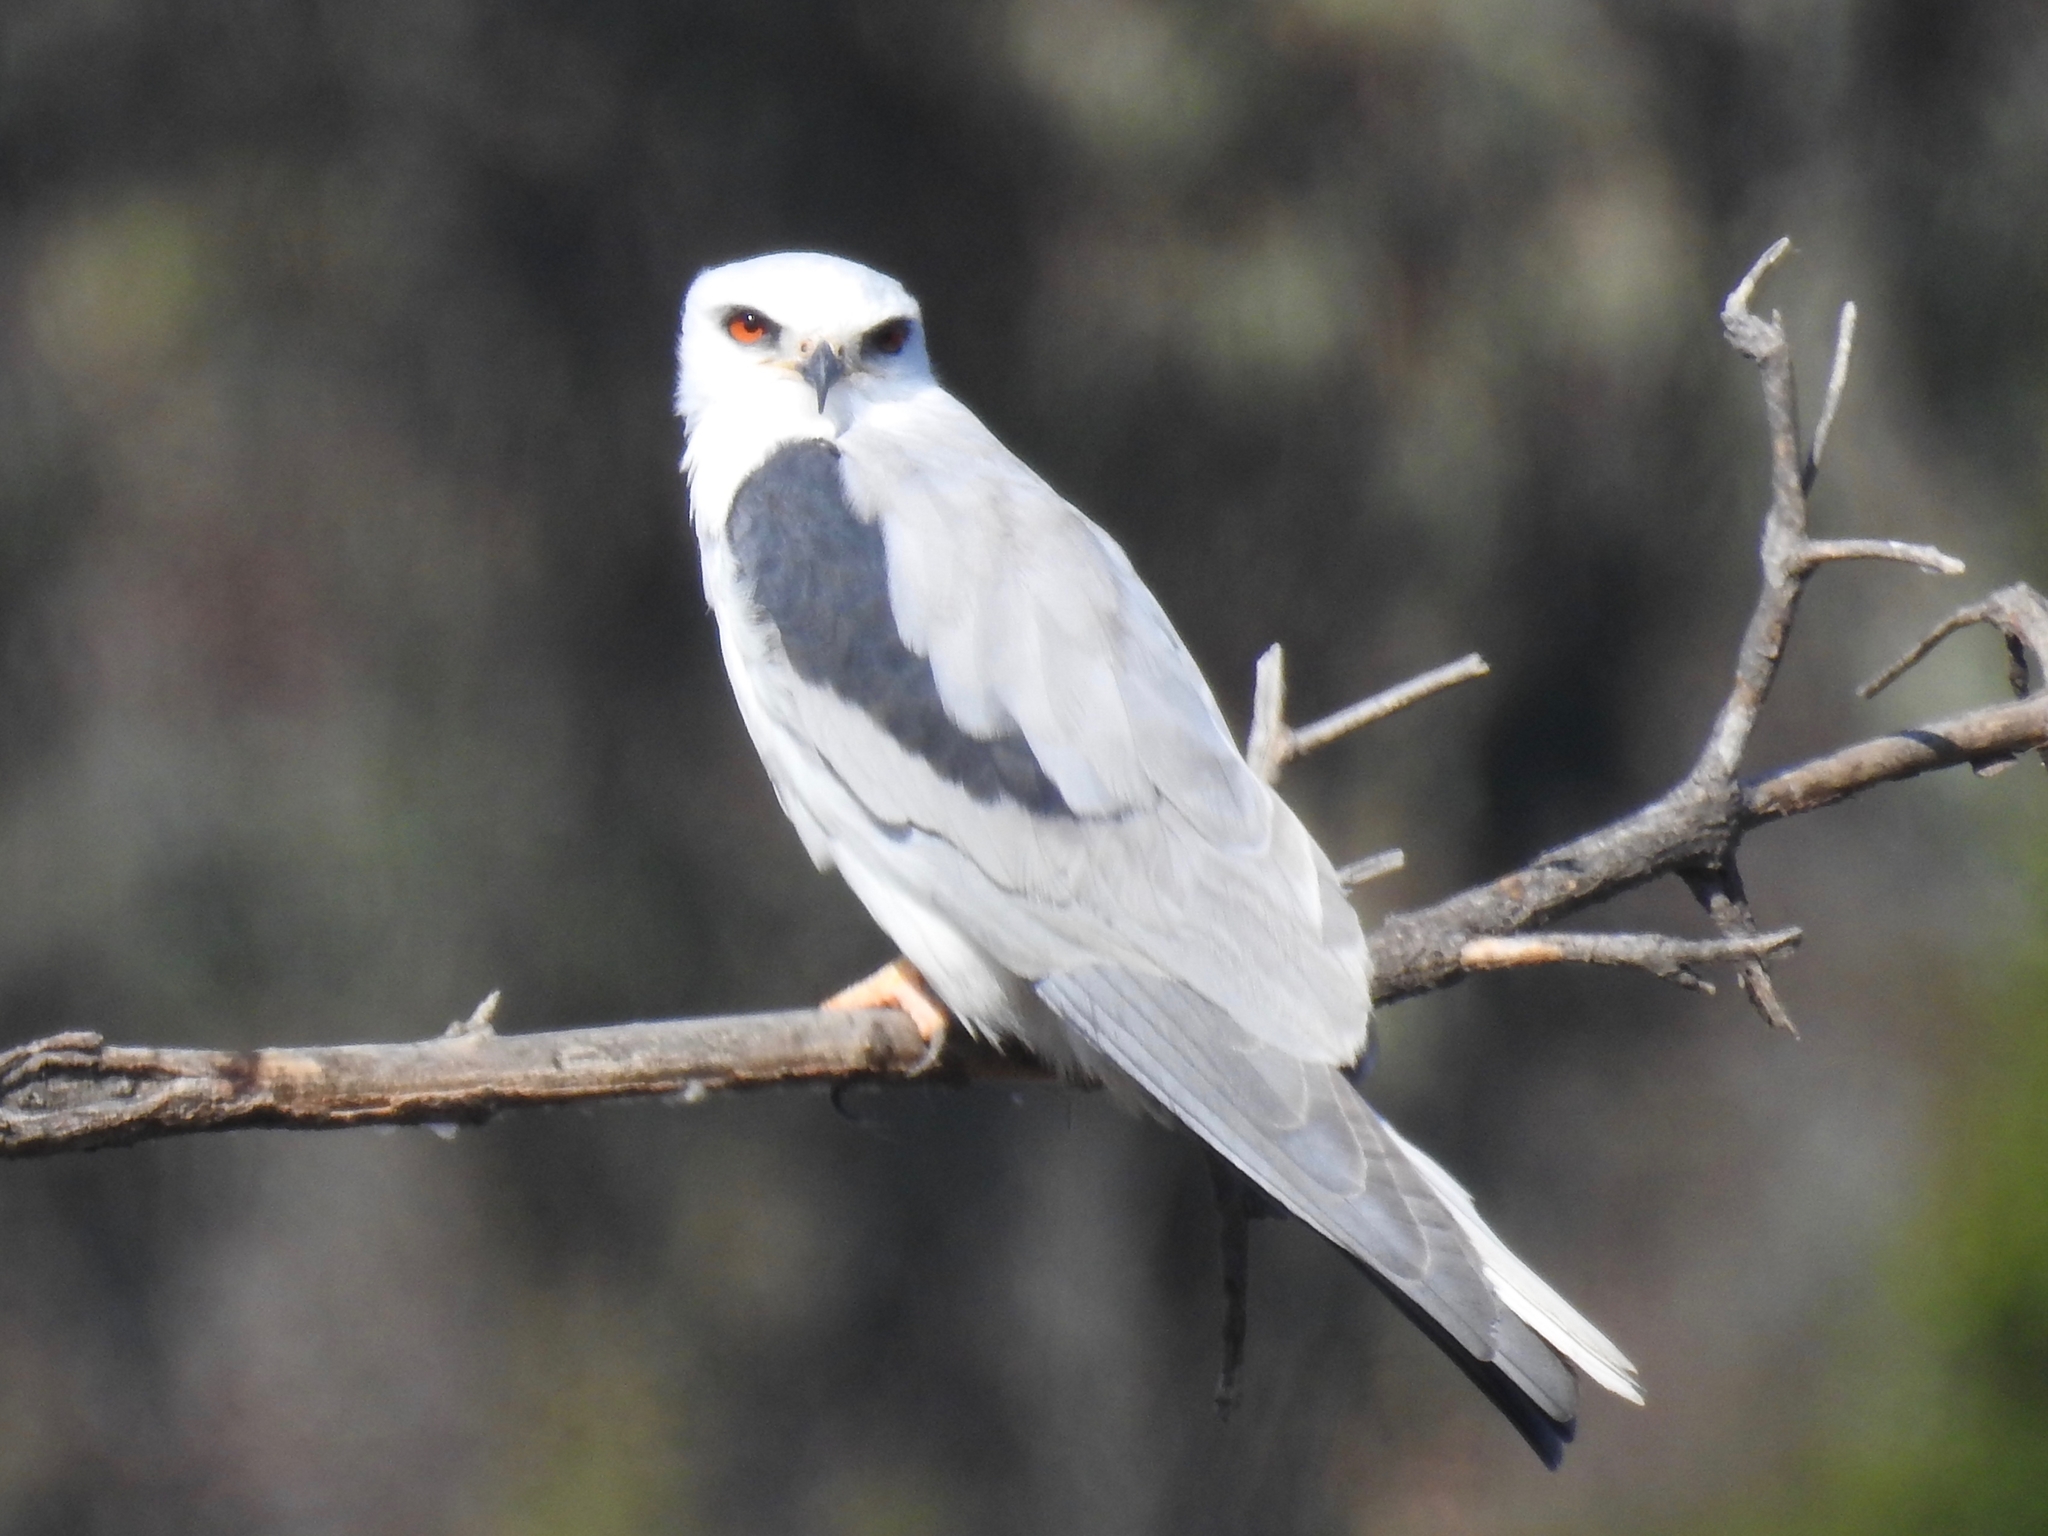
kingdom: Animalia
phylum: Chordata
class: Aves
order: Accipitriformes
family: Accipitridae
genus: Elanus
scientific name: Elanus leucurus
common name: White-tailed kite
